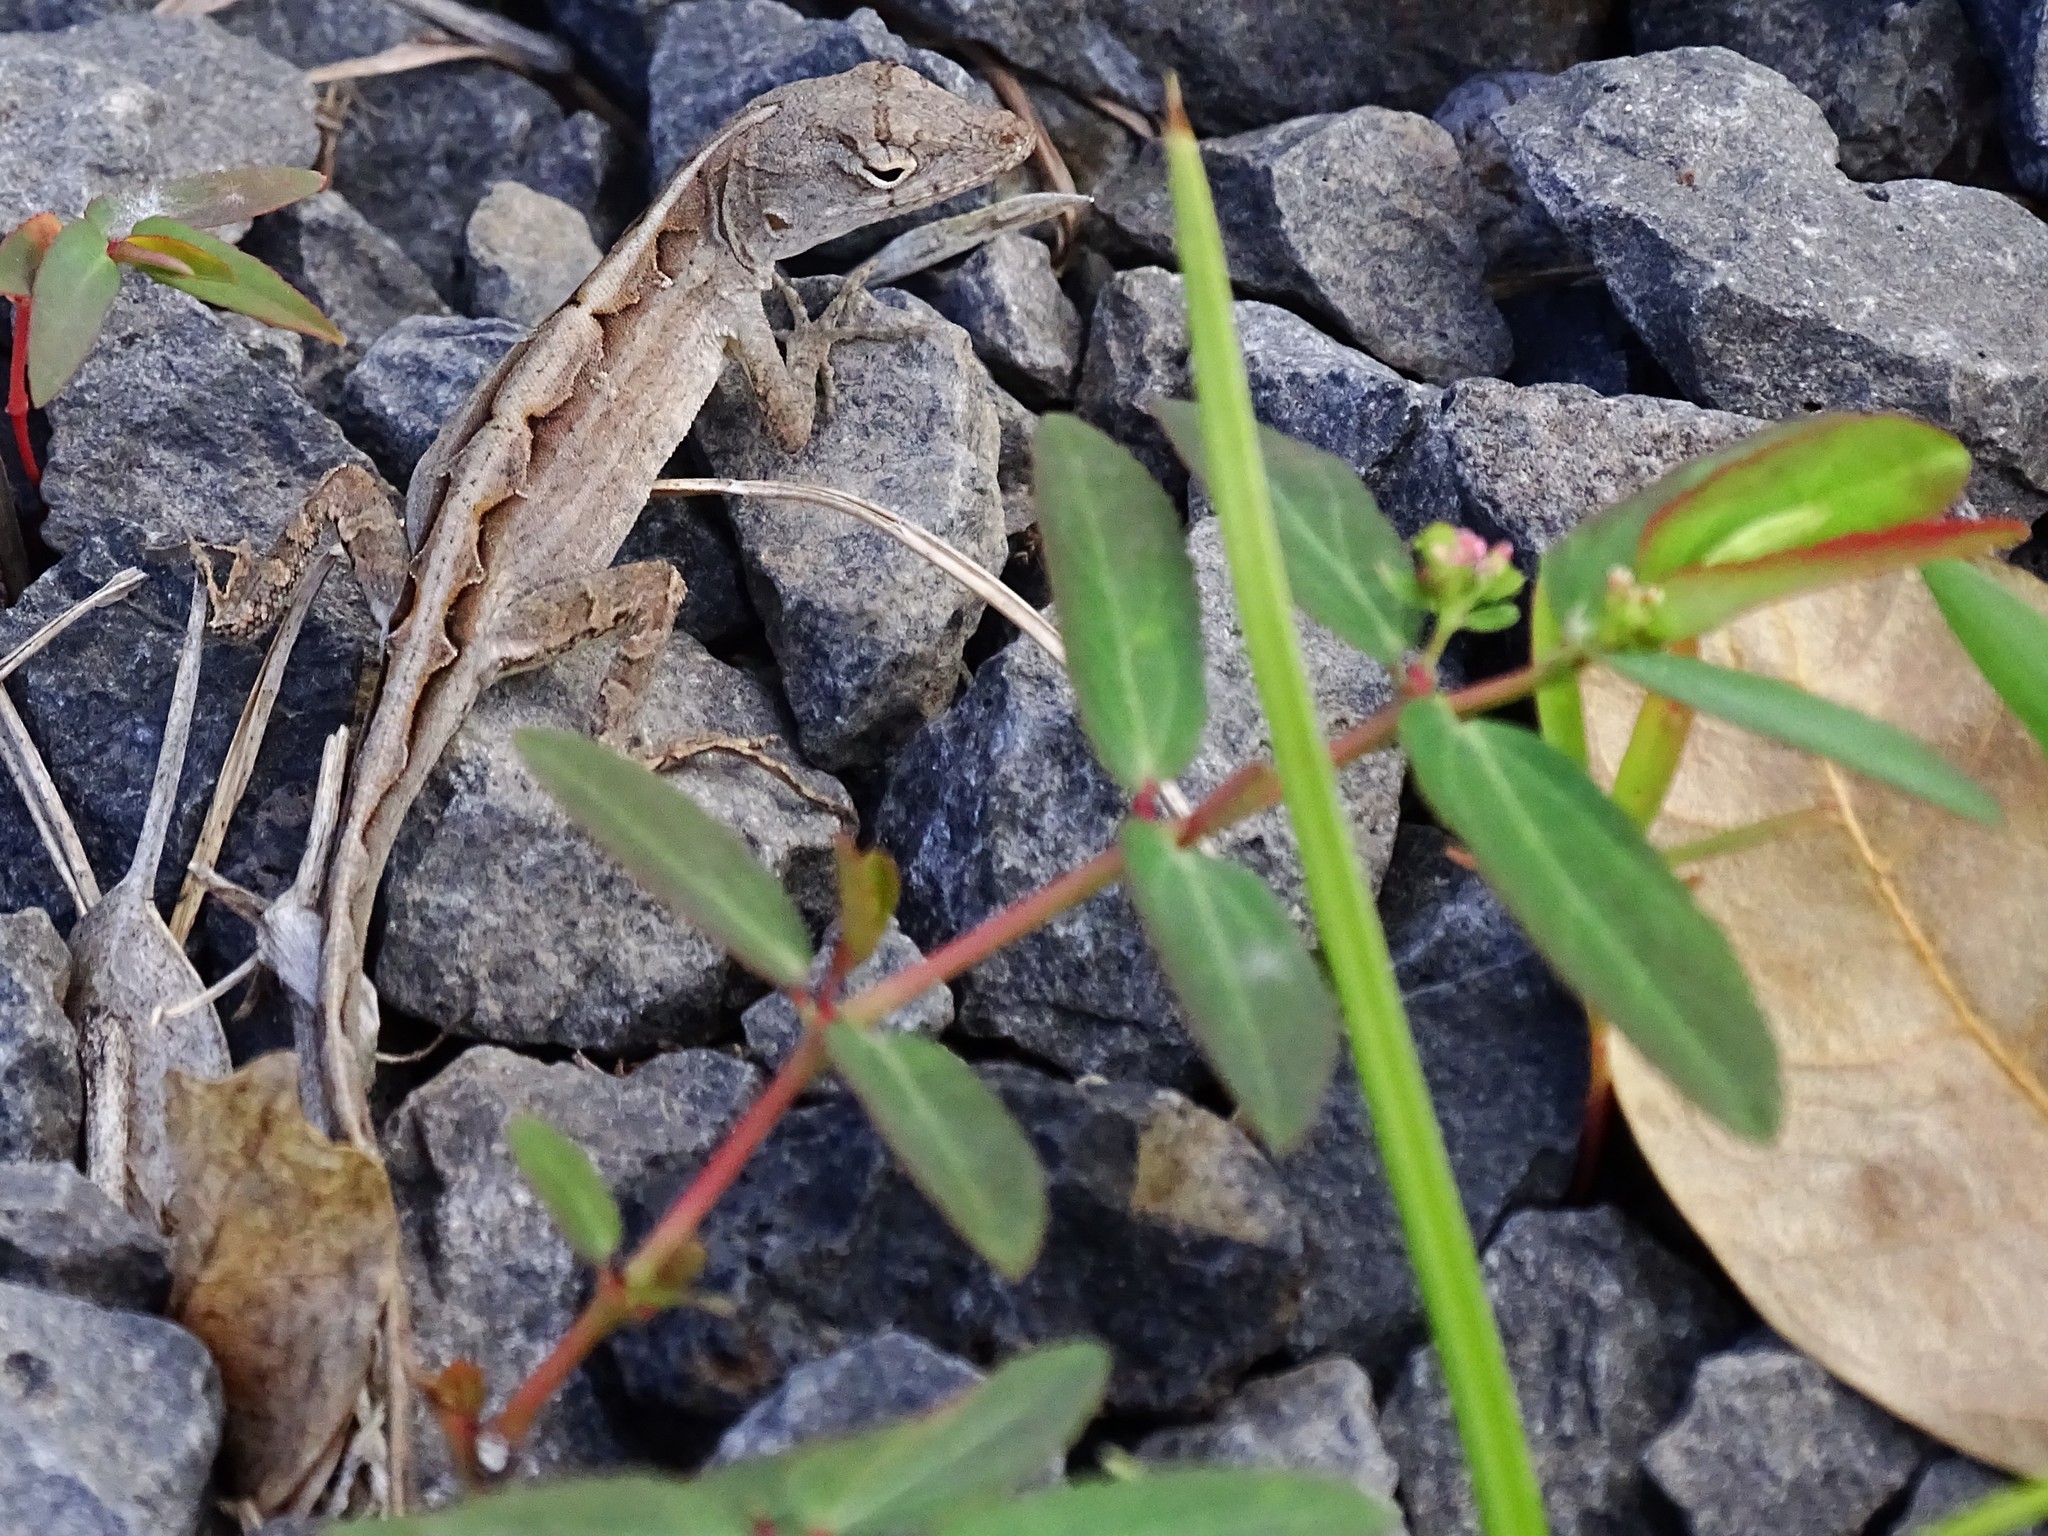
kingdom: Animalia
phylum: Chordata
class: Squamata
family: Dactyloidae
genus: Anolis
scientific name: Anolis sagrei
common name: Brown anole
